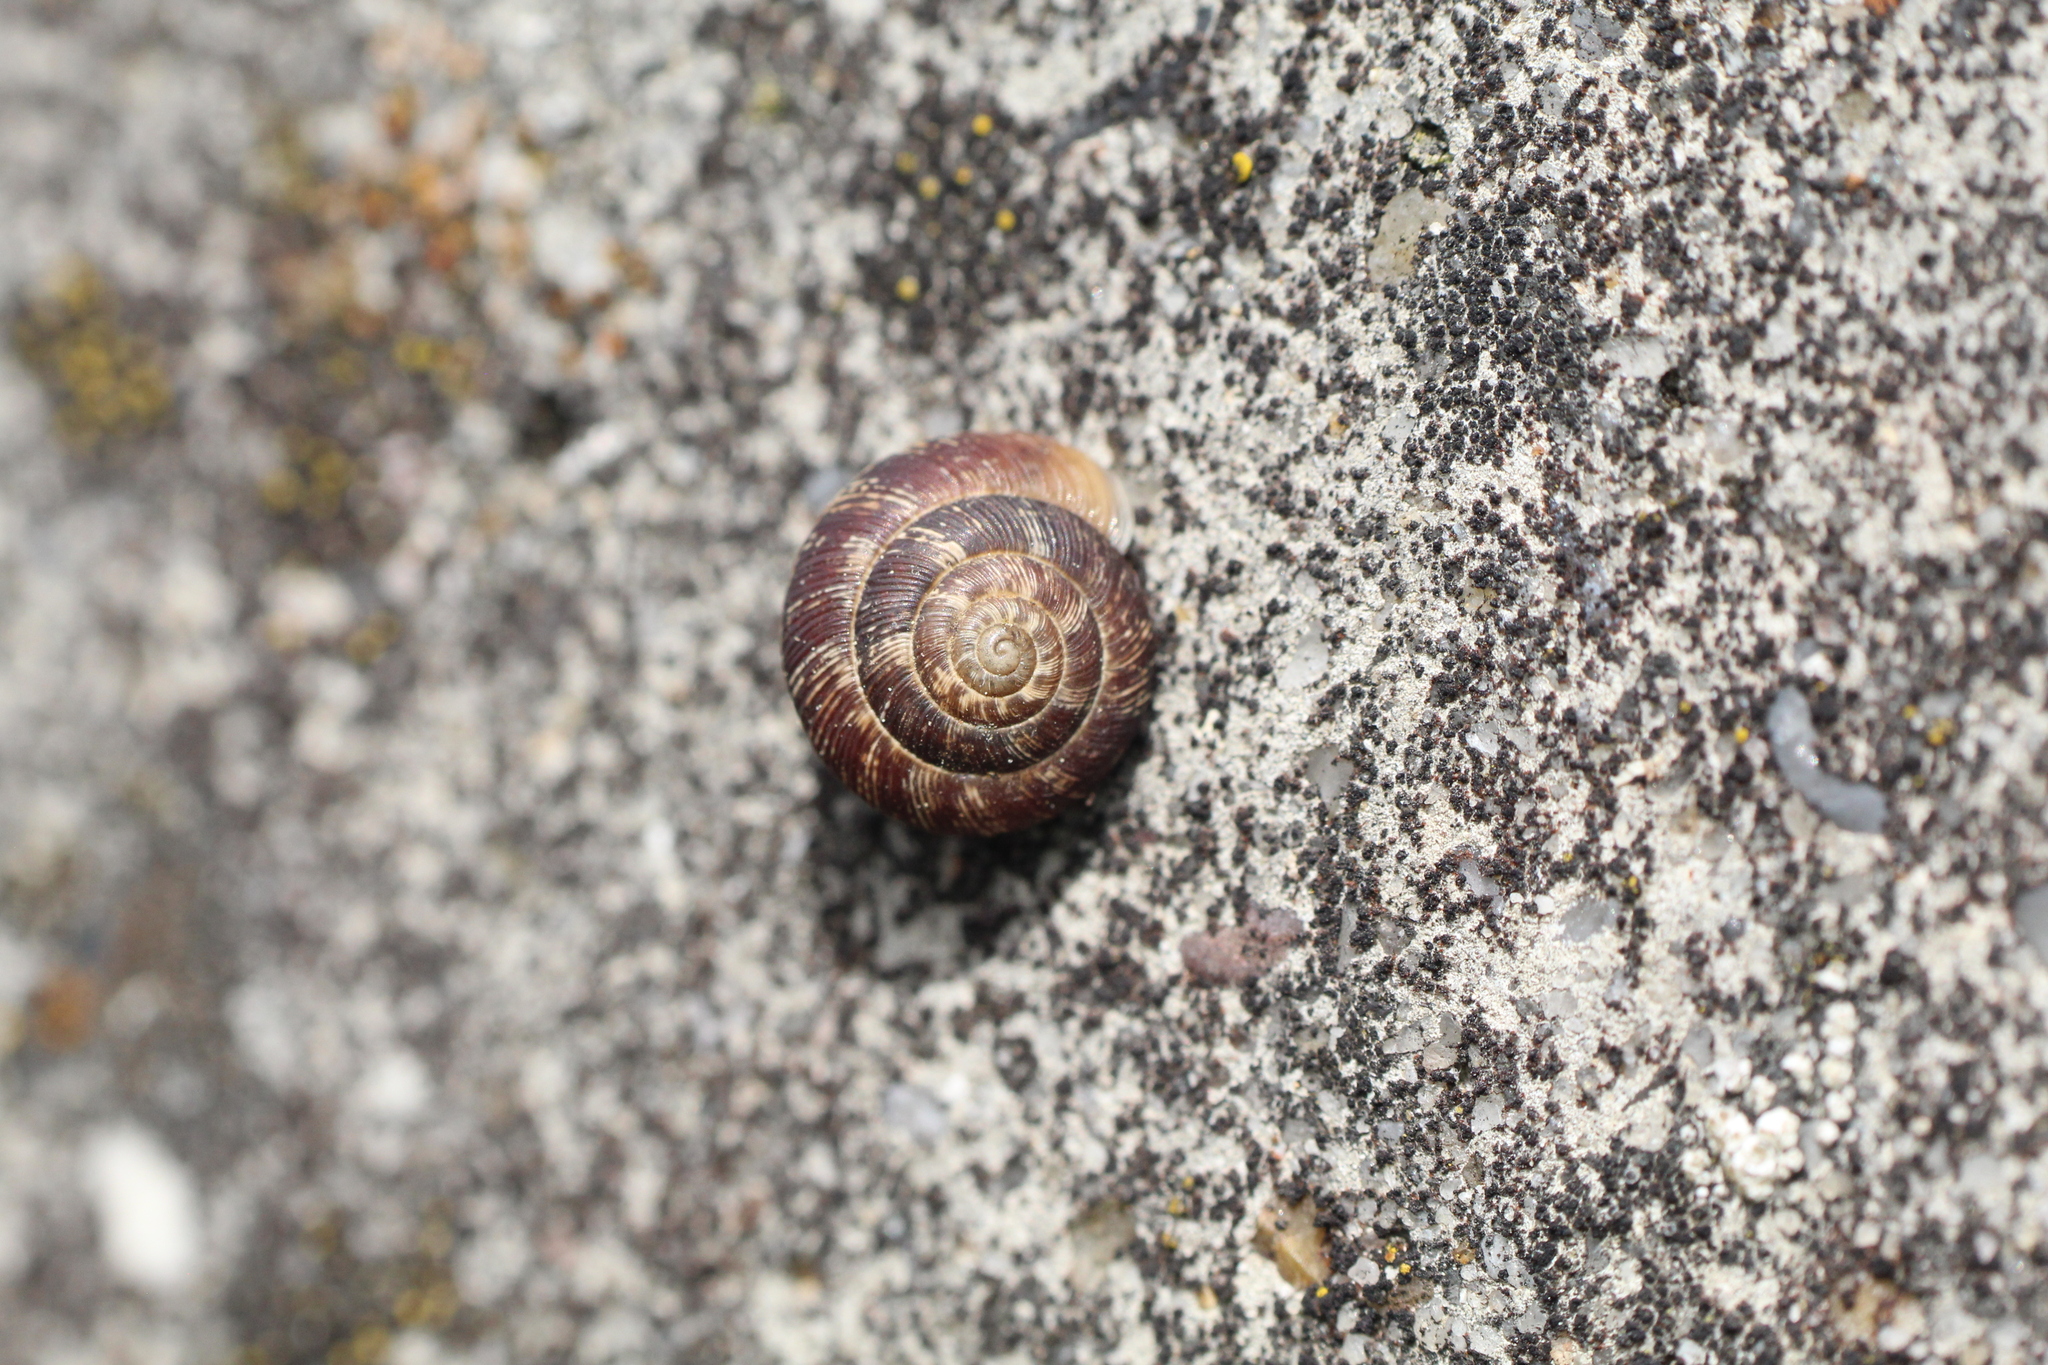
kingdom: Animalia
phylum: Mollusca
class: Gastropoda
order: Stylommatophora
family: Geomitridae
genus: Xeroplexa
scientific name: Xeroplexa intersecta
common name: Wrinkled snail
